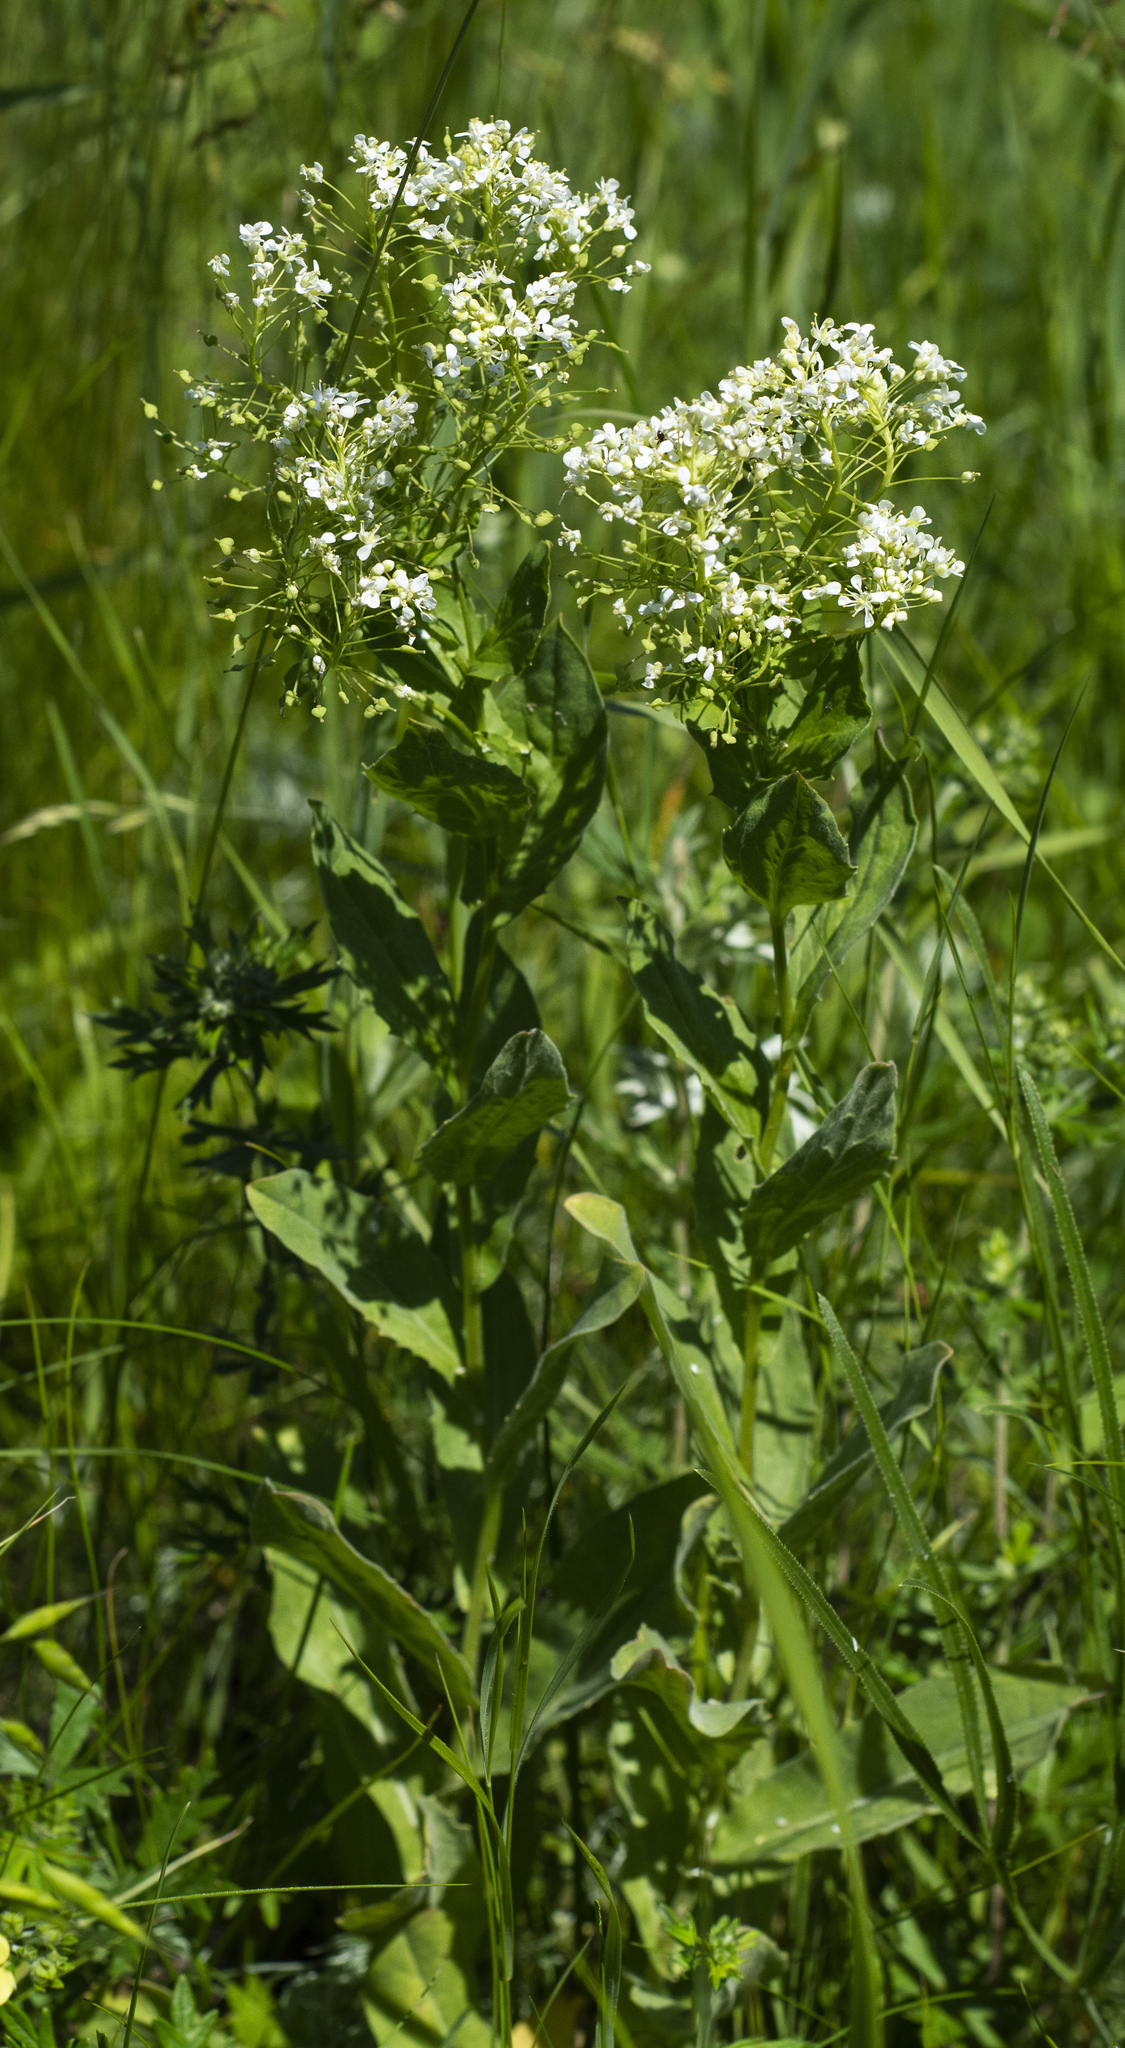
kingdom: Plantae
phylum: Tracheophyta
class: Magnoliopsida
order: Brassicales
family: Brassicaceae
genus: Lepidium
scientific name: Lepidium draba
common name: Hoary cress
